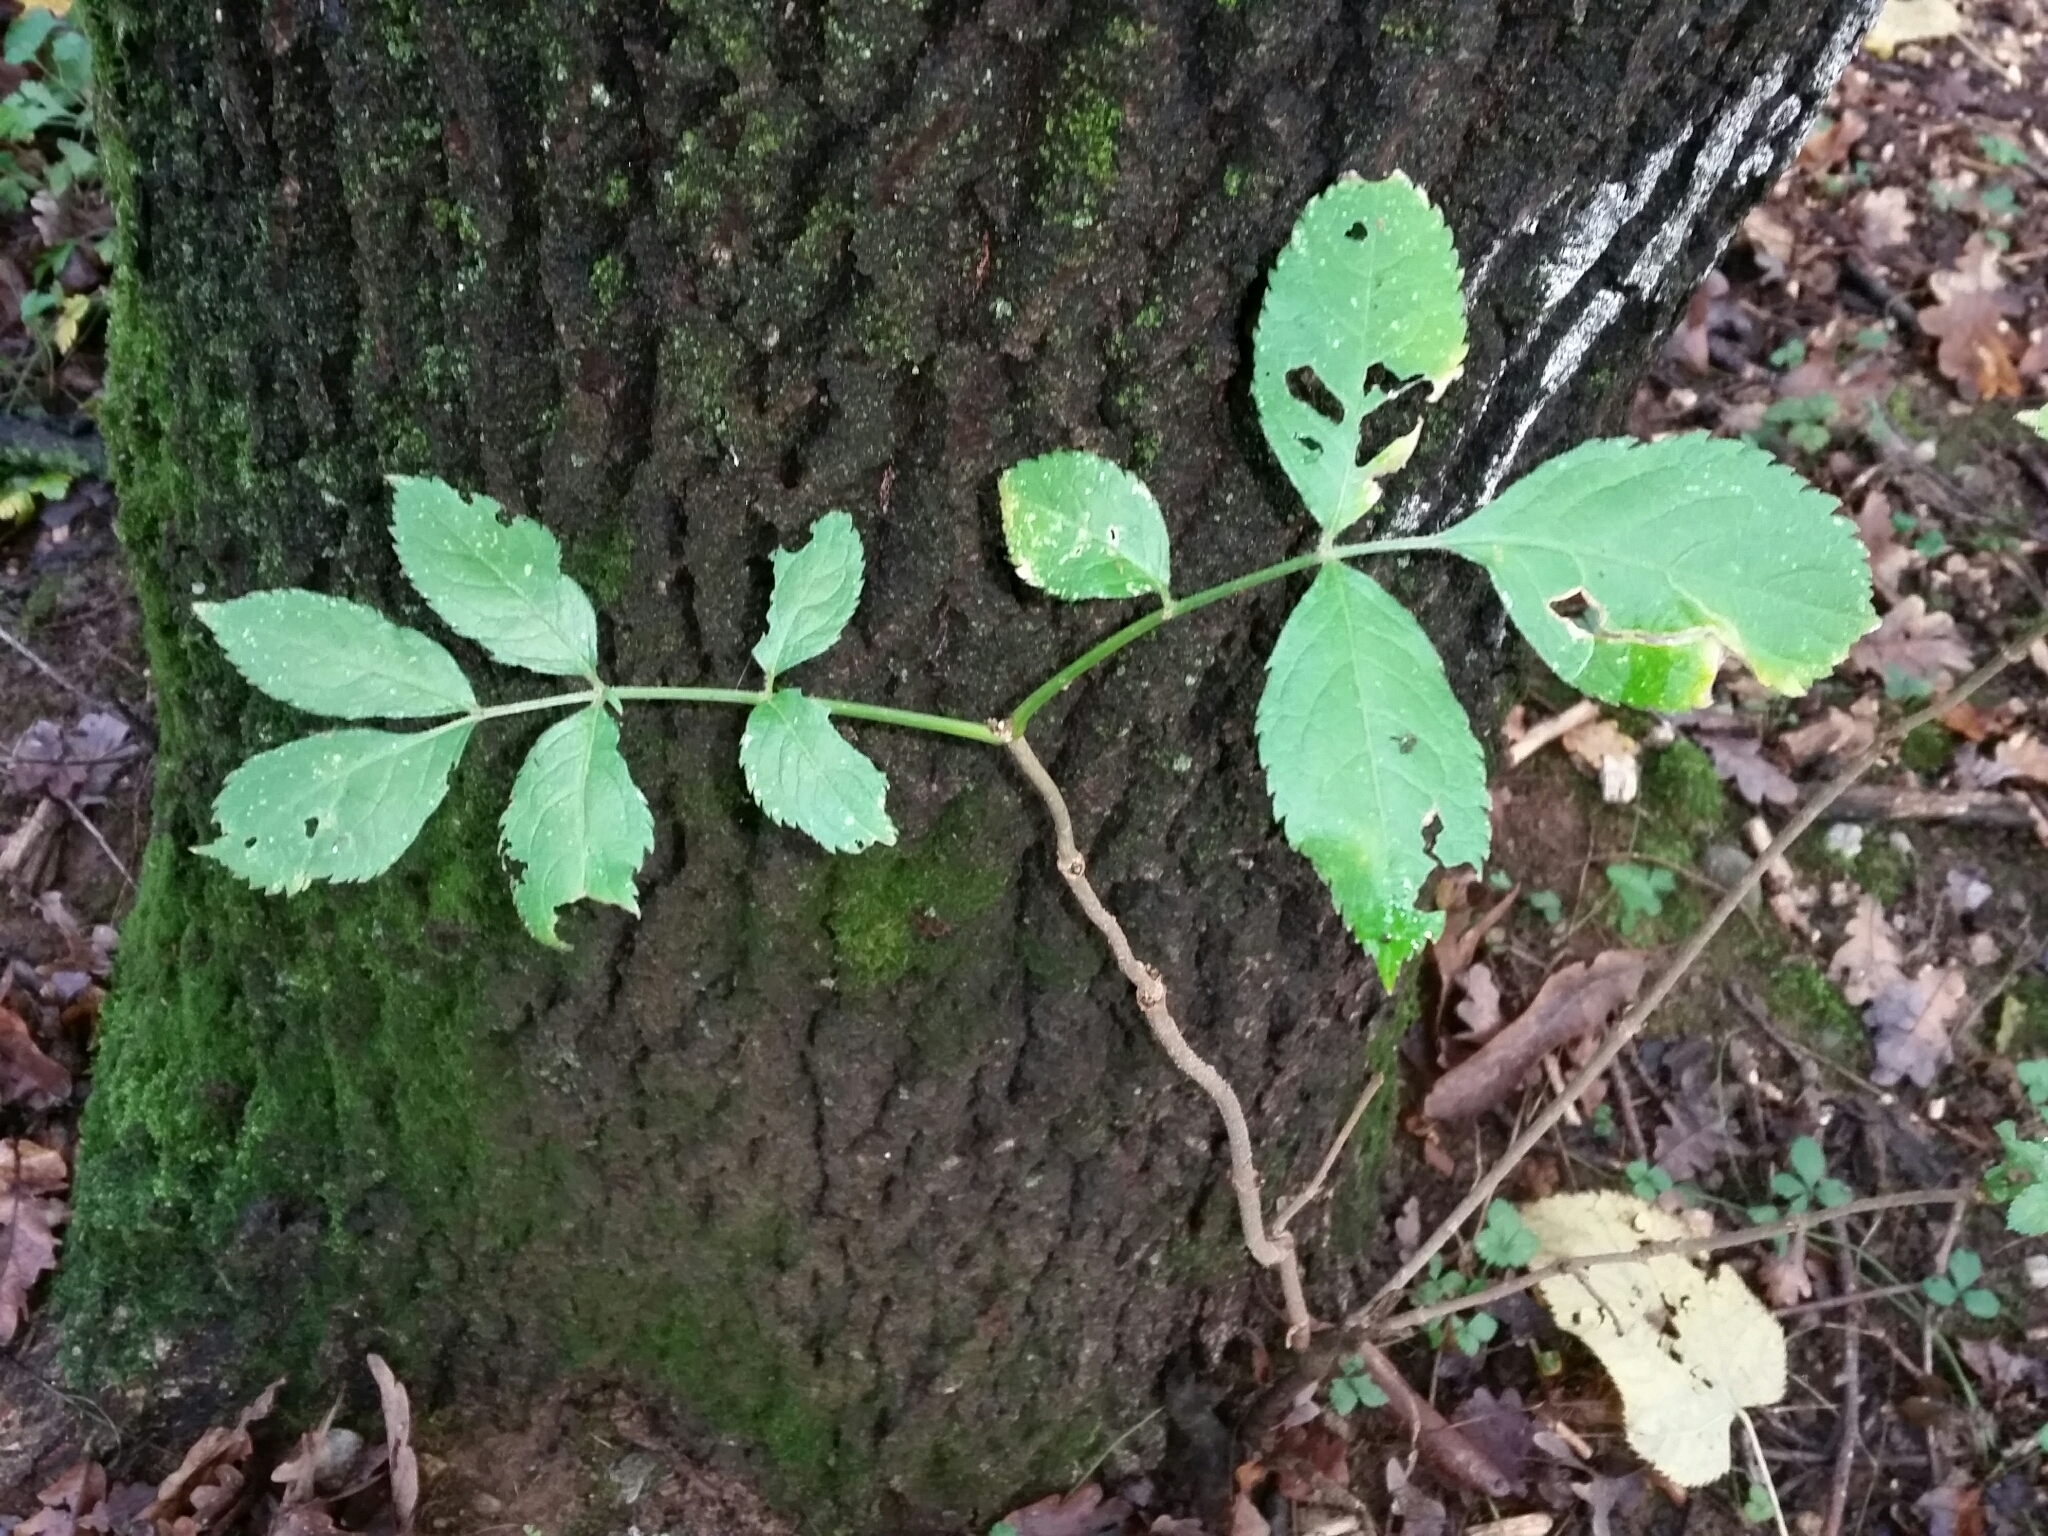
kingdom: Plantae
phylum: Tracheophyta
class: Magnoliopsida
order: Dipsacales
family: Viburnaceae
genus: Sambucus
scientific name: Sambucus nigra
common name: Elder
